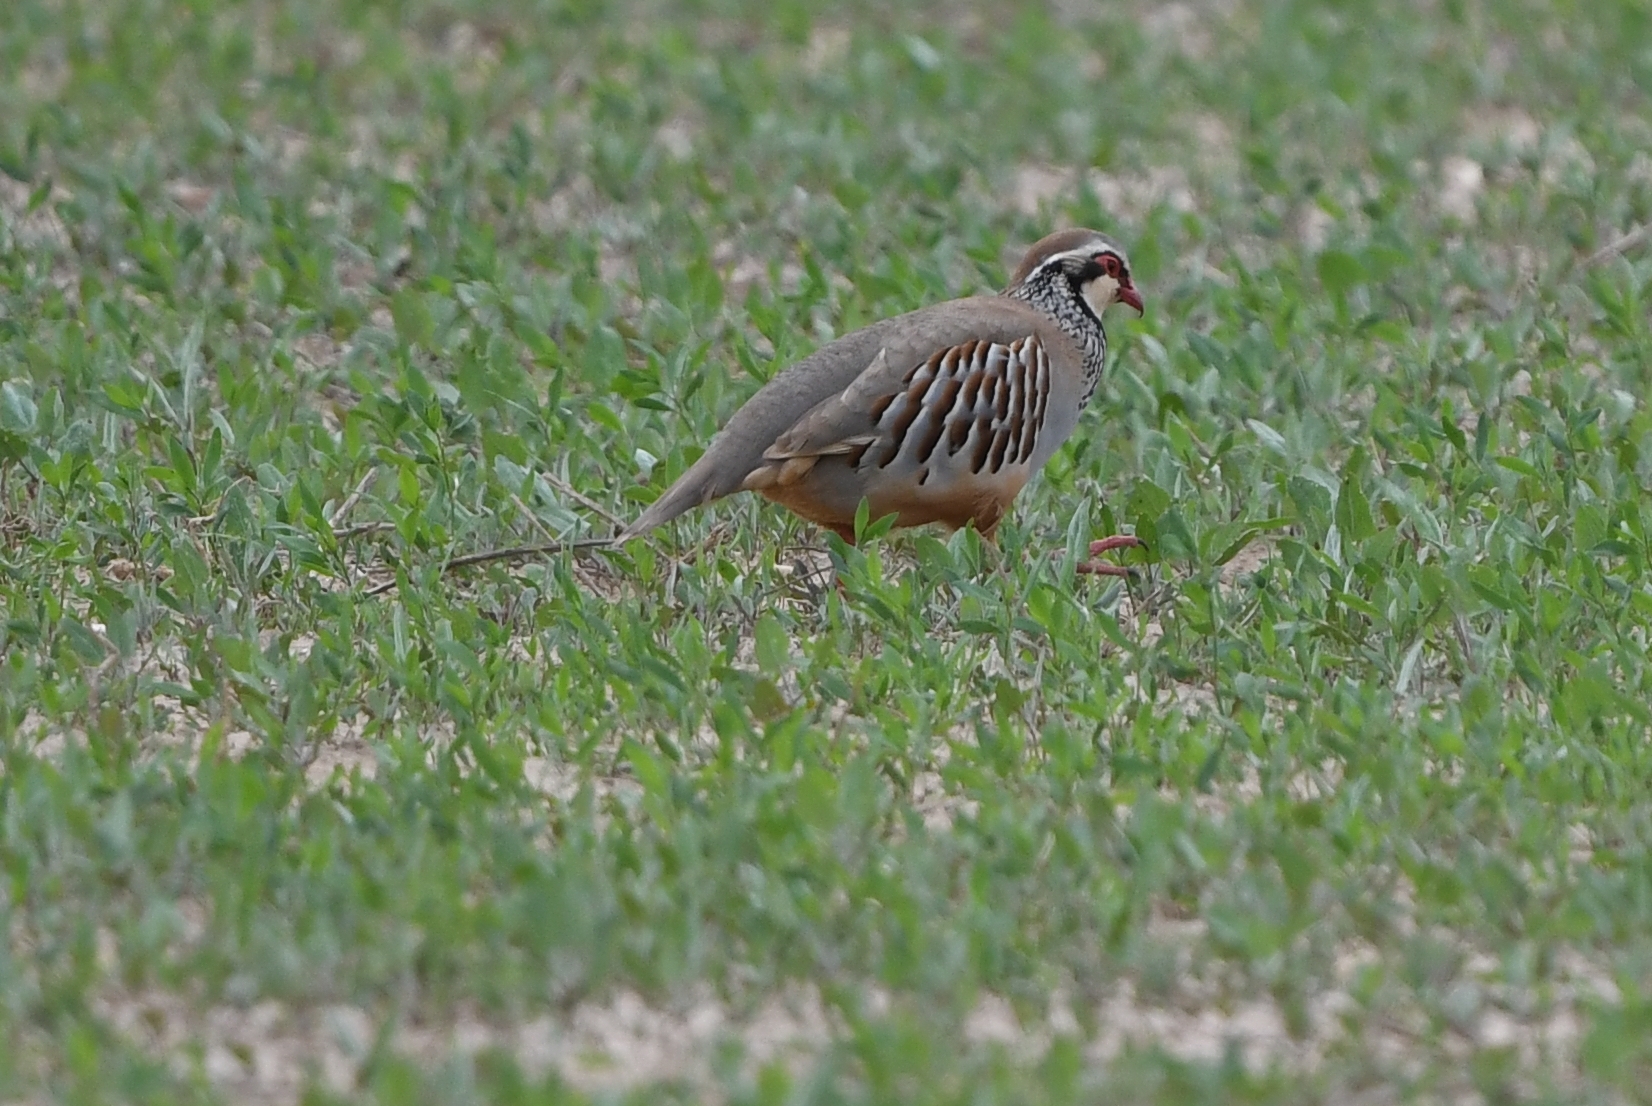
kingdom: Animalia
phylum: Chordata
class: Aves
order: Galliformes
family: Phasianidae
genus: Alectoris
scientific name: Alectoris rufa
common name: Red-legged partridge
